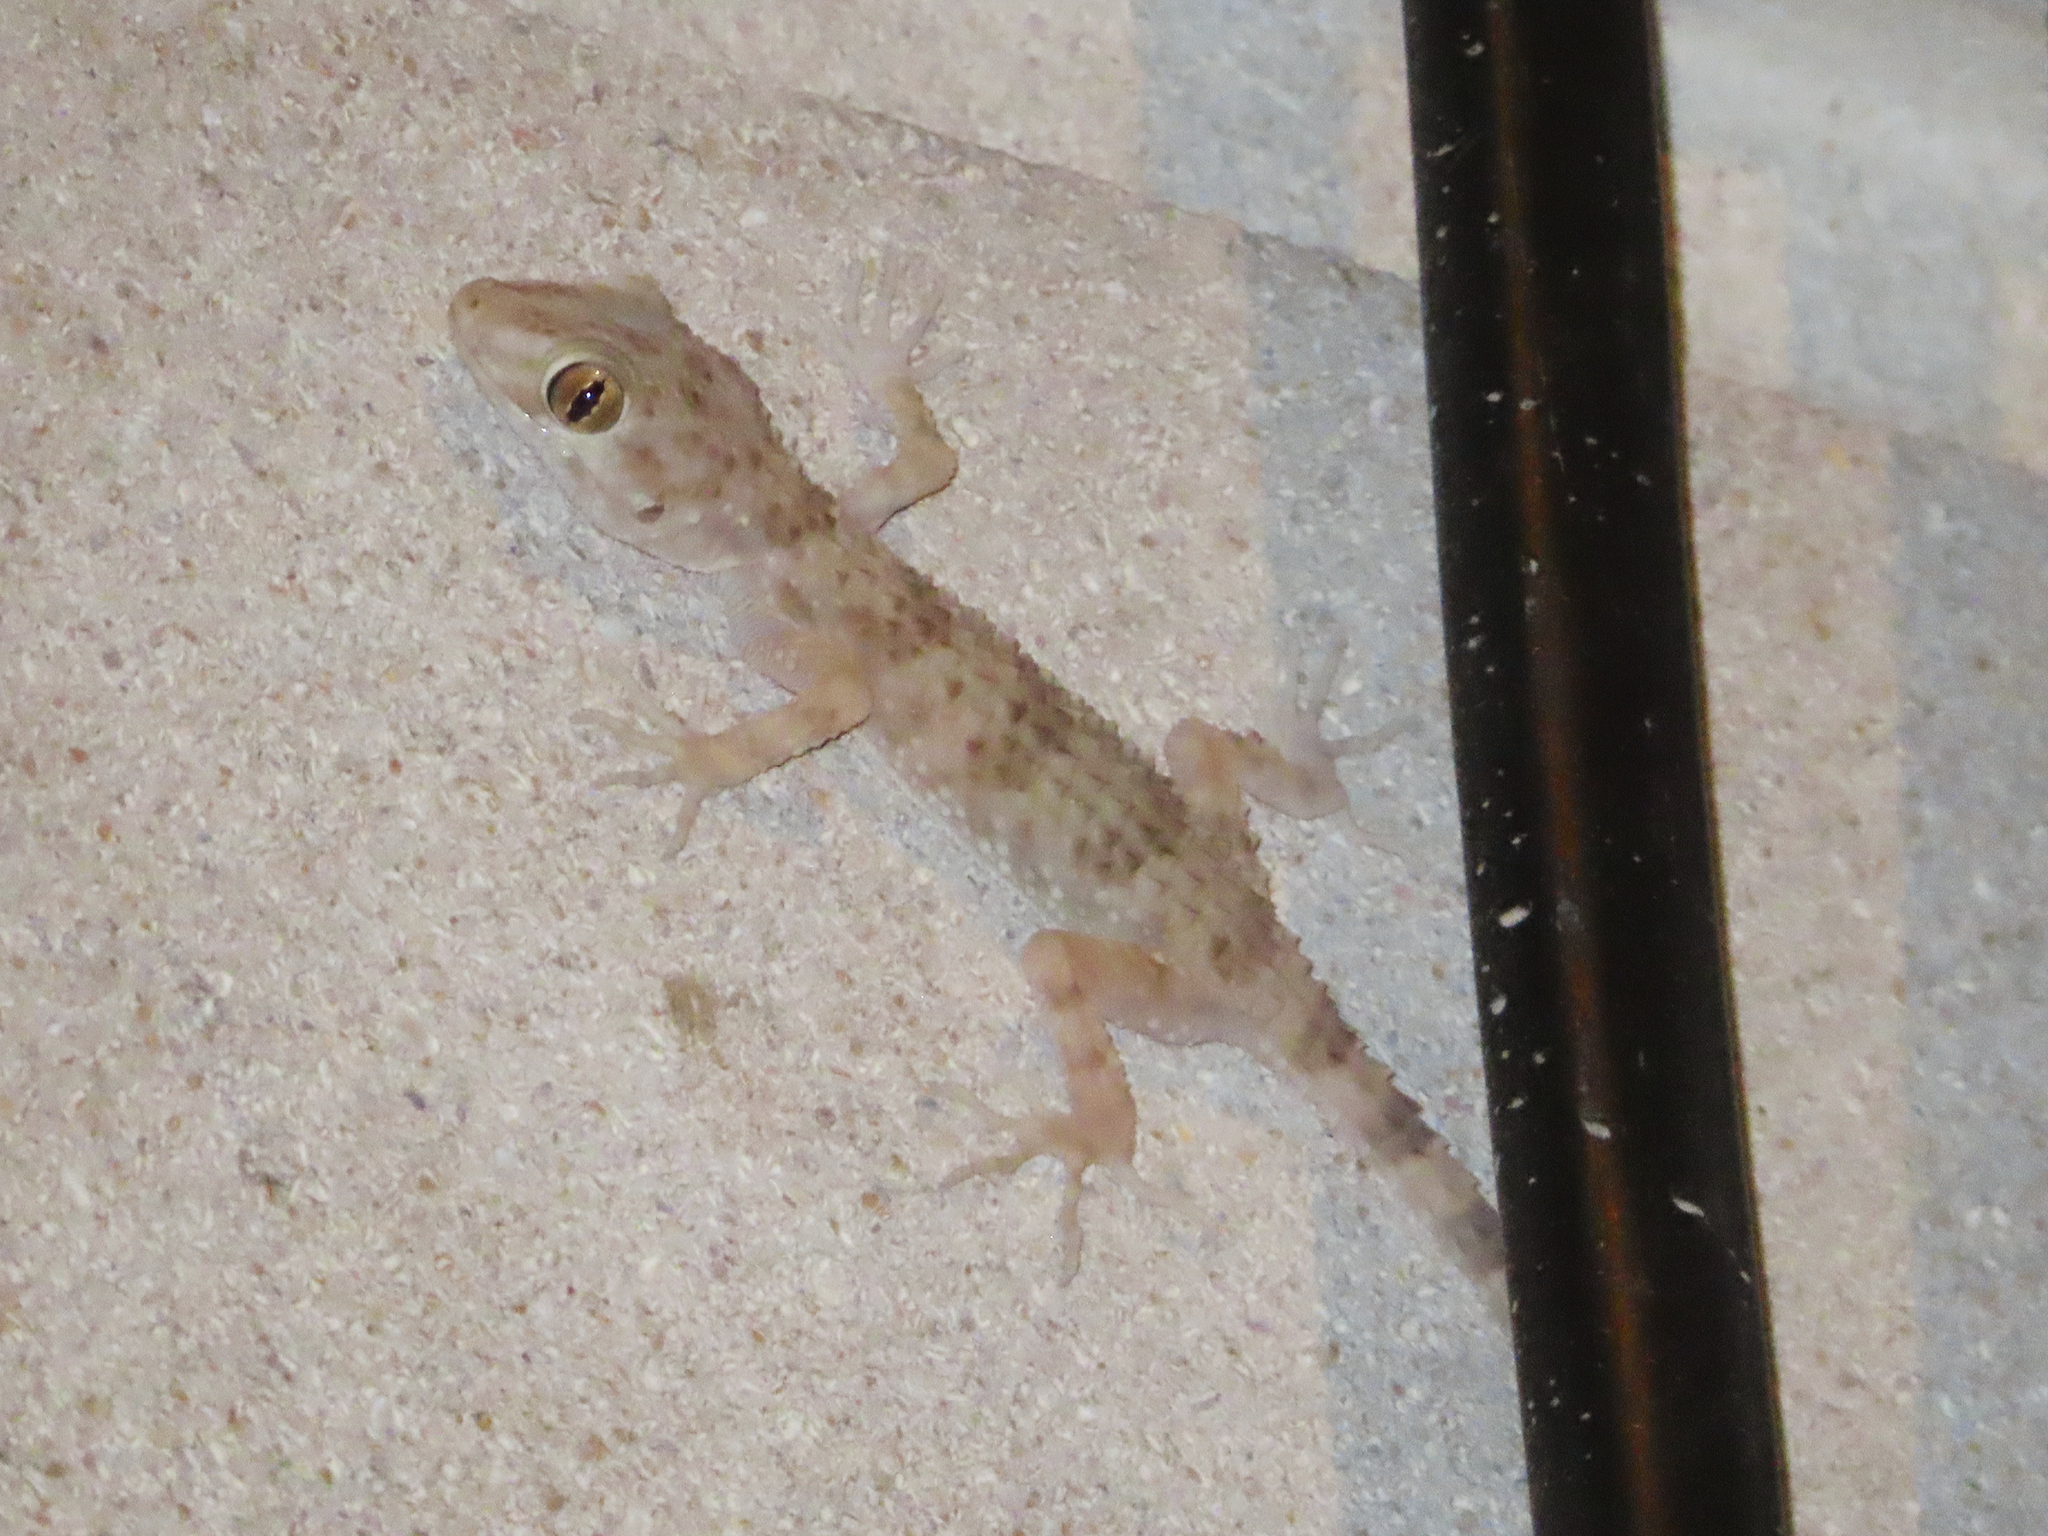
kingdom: Animalia
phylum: Chordata
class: Squamata
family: Gekkonidae
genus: Tenuidactylus
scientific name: Tenuidactylus caspius
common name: Caspian bent-toed gecko
